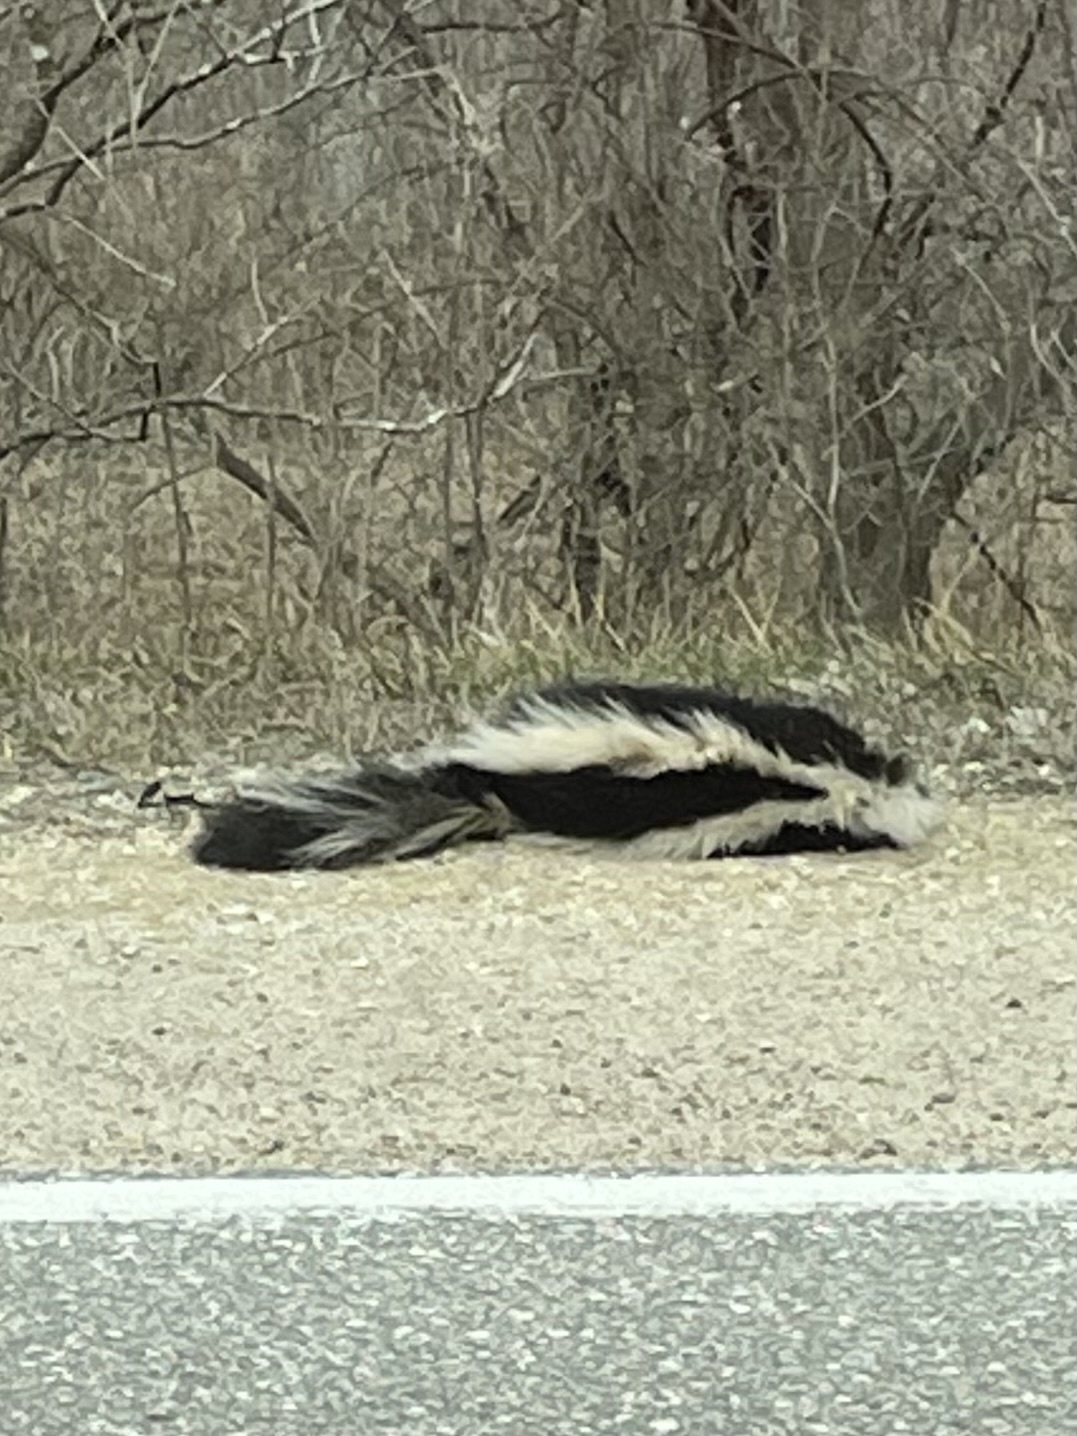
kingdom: Animalia
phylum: Chordata
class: Mammalia
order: Carnivora
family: Mephitidae
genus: Mephitis
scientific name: Mephitis mephitis
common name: Striped skunk
